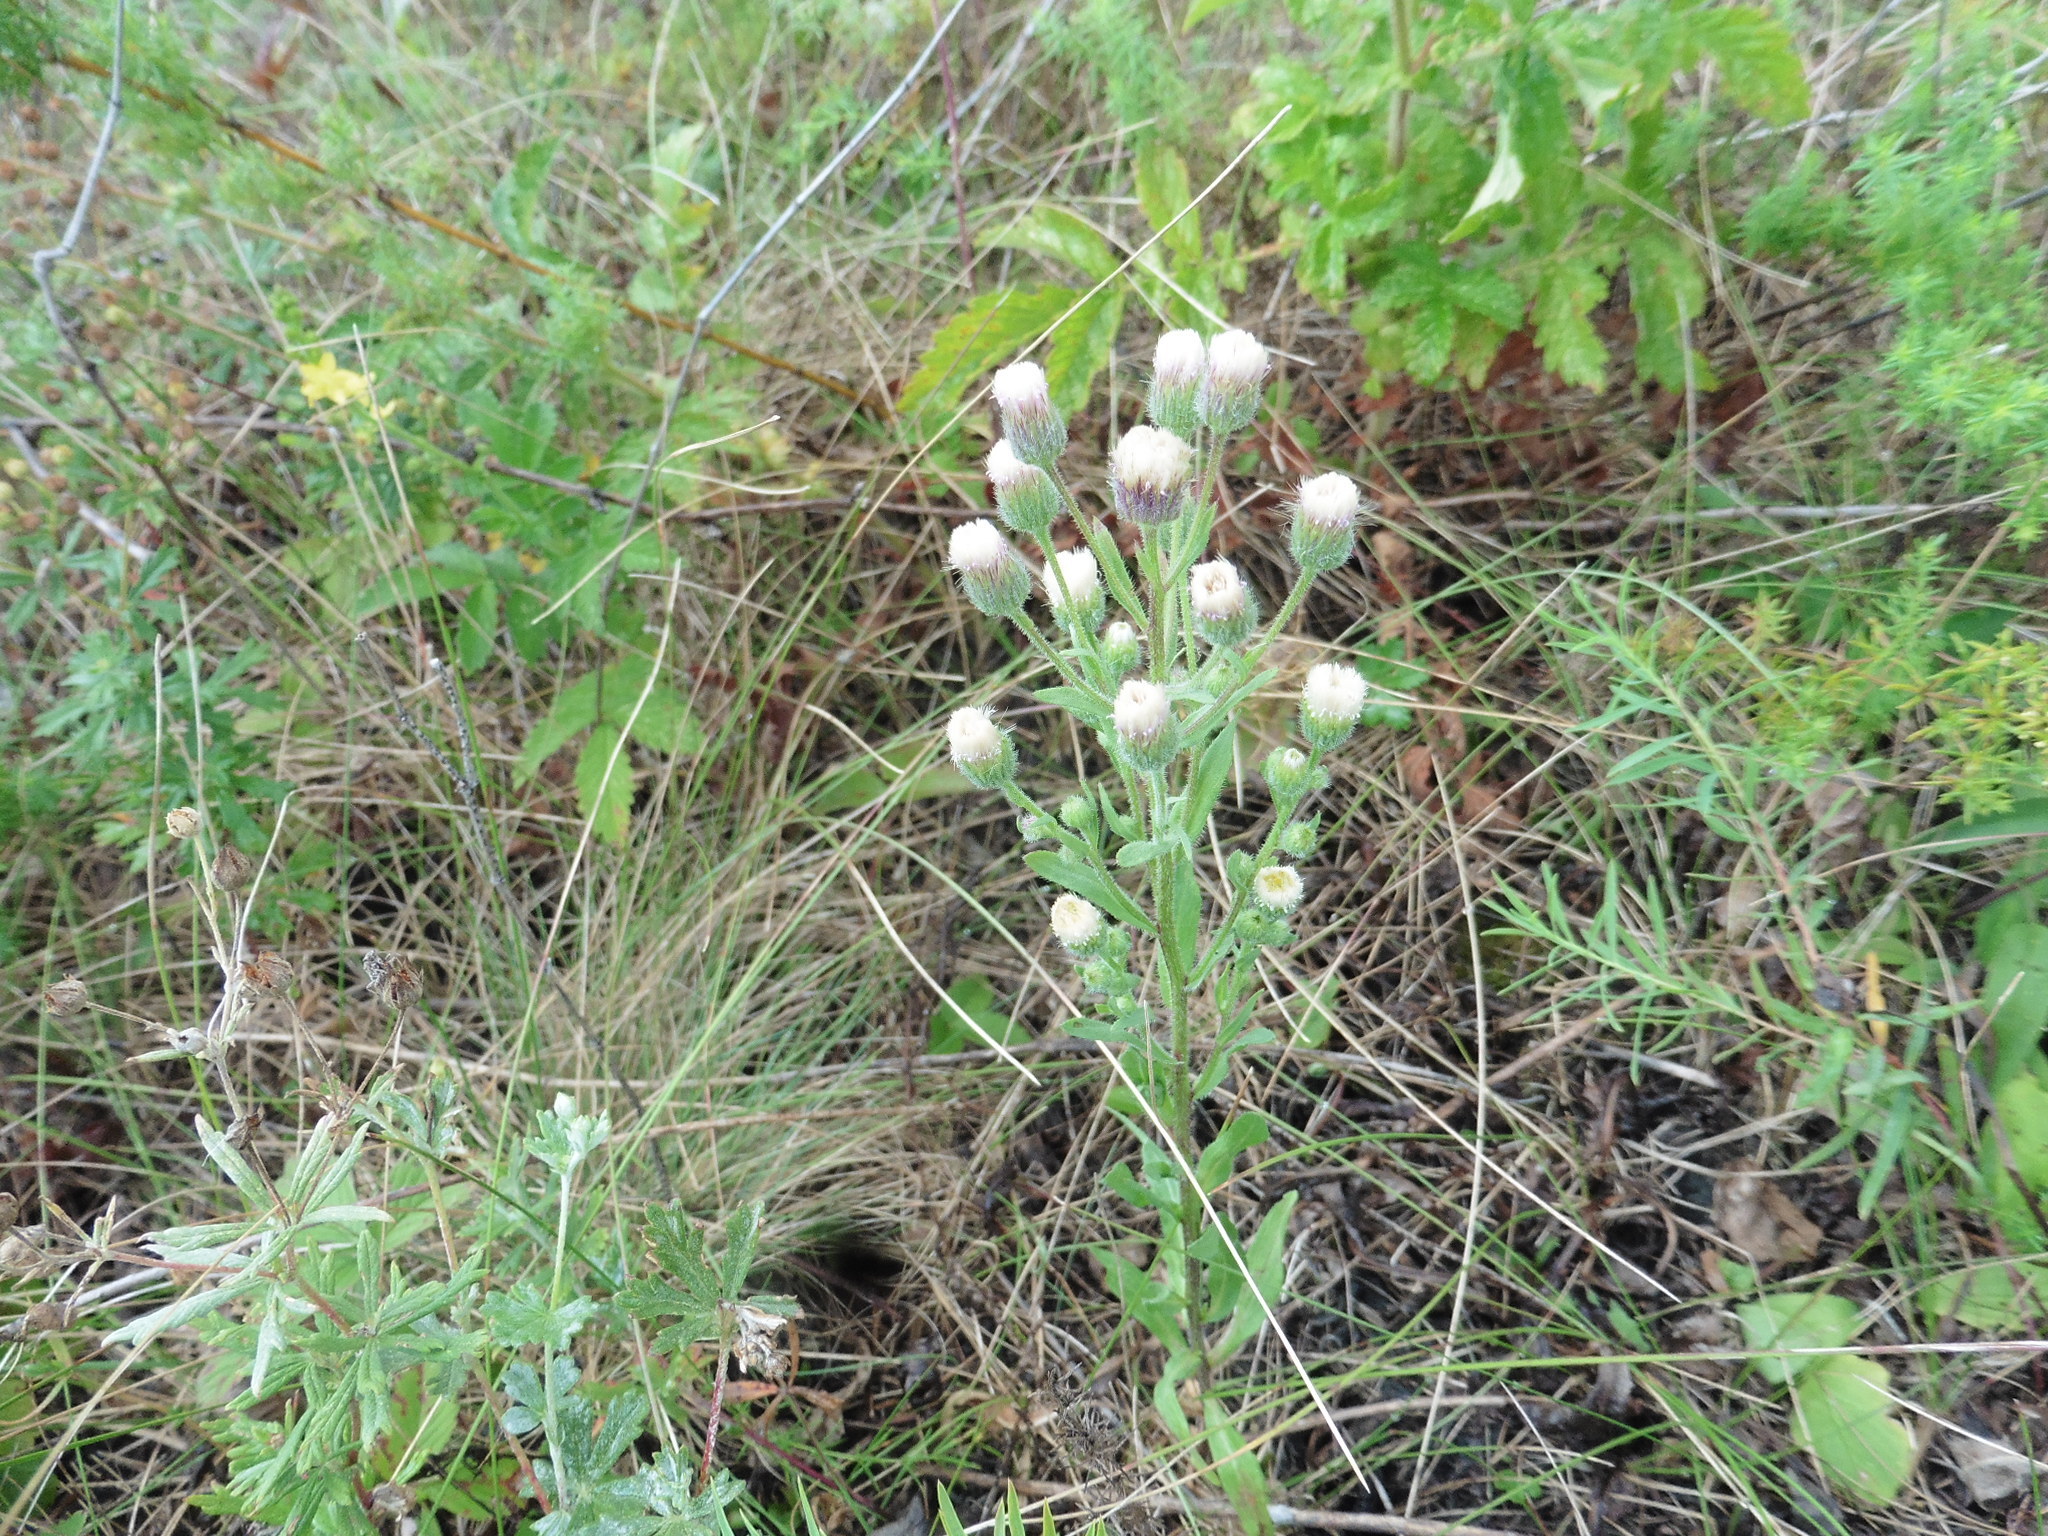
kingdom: Plantae
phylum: Tracheophyta
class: Magnoliopsida
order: Asterales
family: Asteraceae
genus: Erigeron
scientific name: Erigeron acris
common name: Blue fleabane
